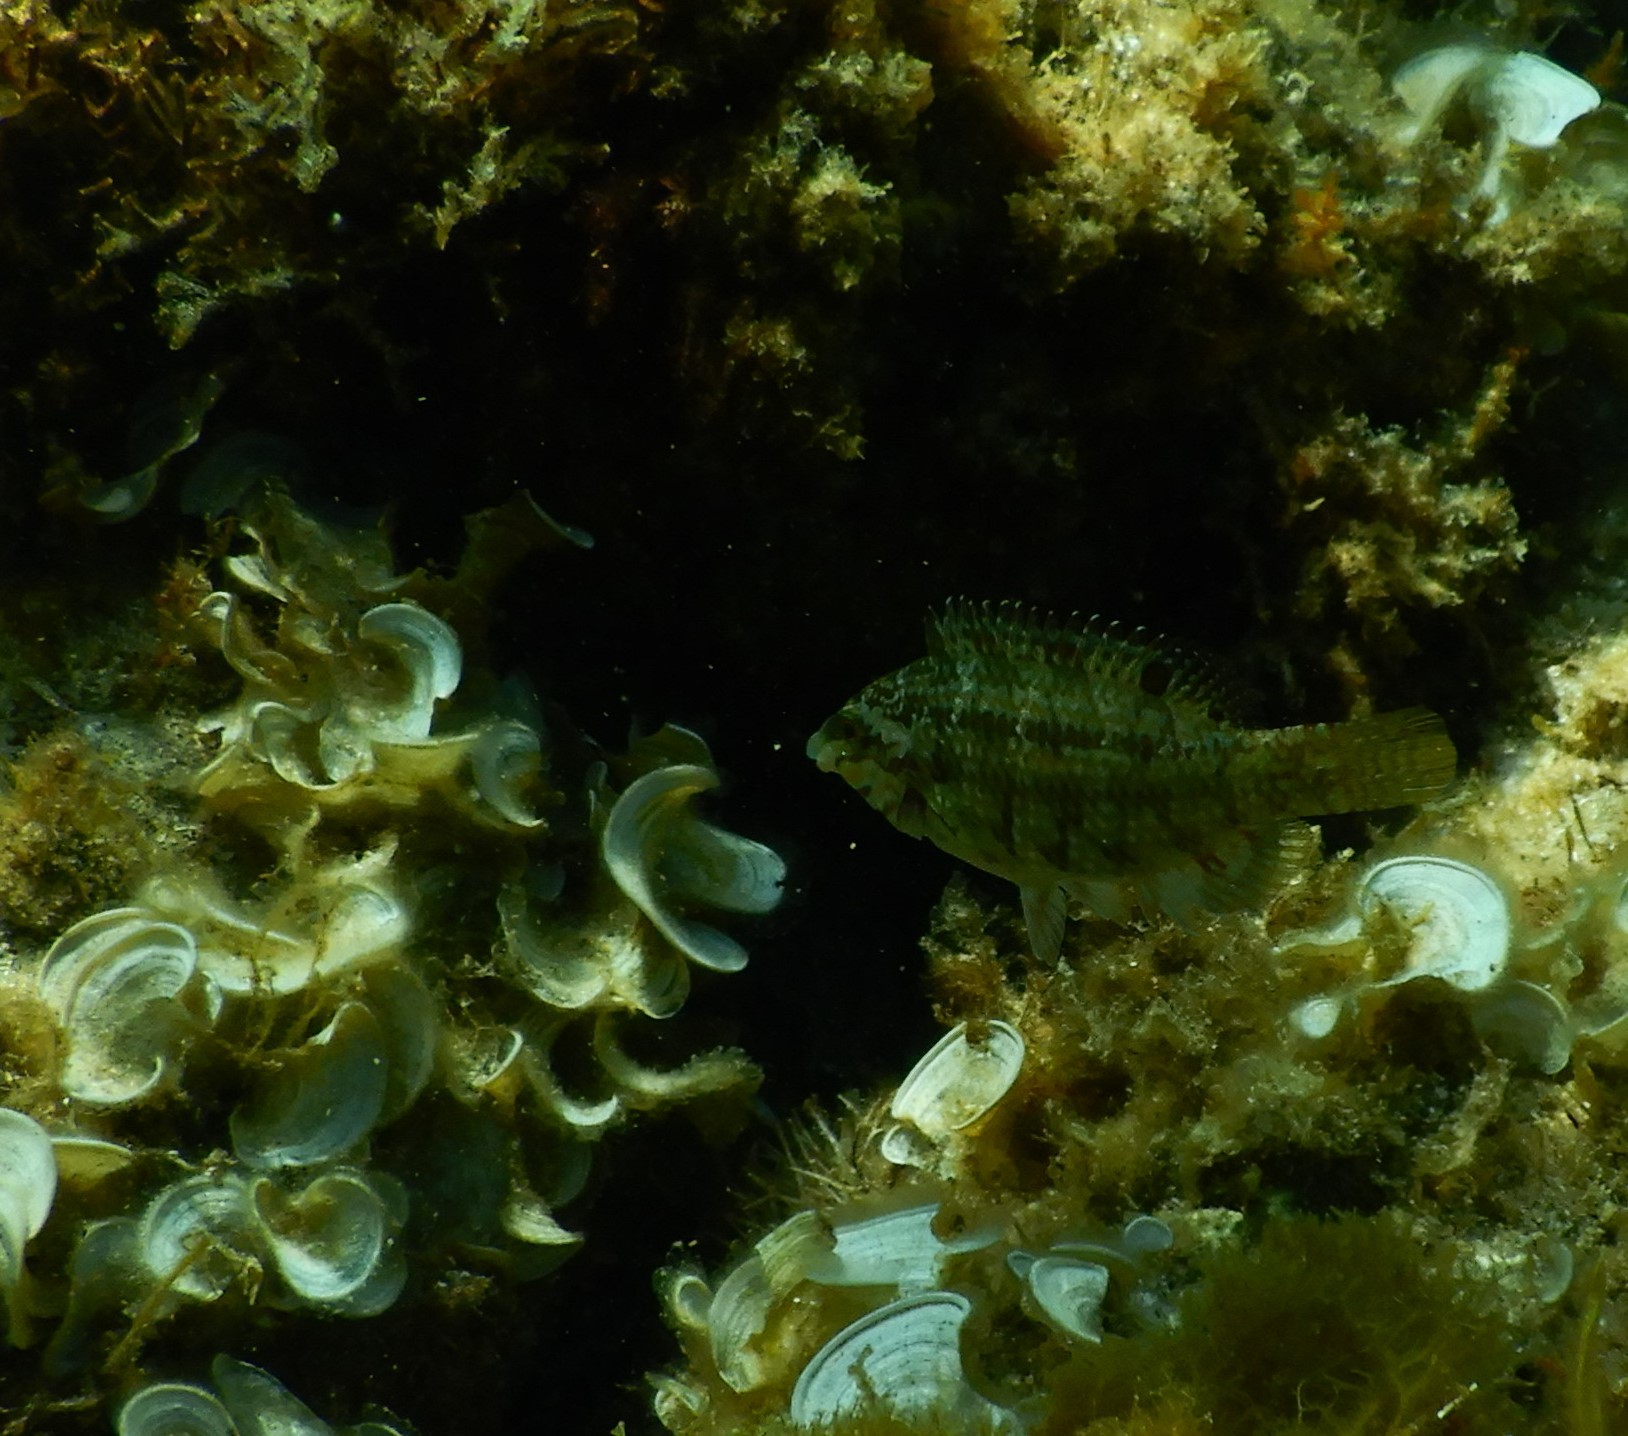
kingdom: Animalia
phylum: Chordata
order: Perciformes
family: Labridae
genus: Symphodus
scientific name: Symphodus roissali
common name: Five-spotted wrasse
